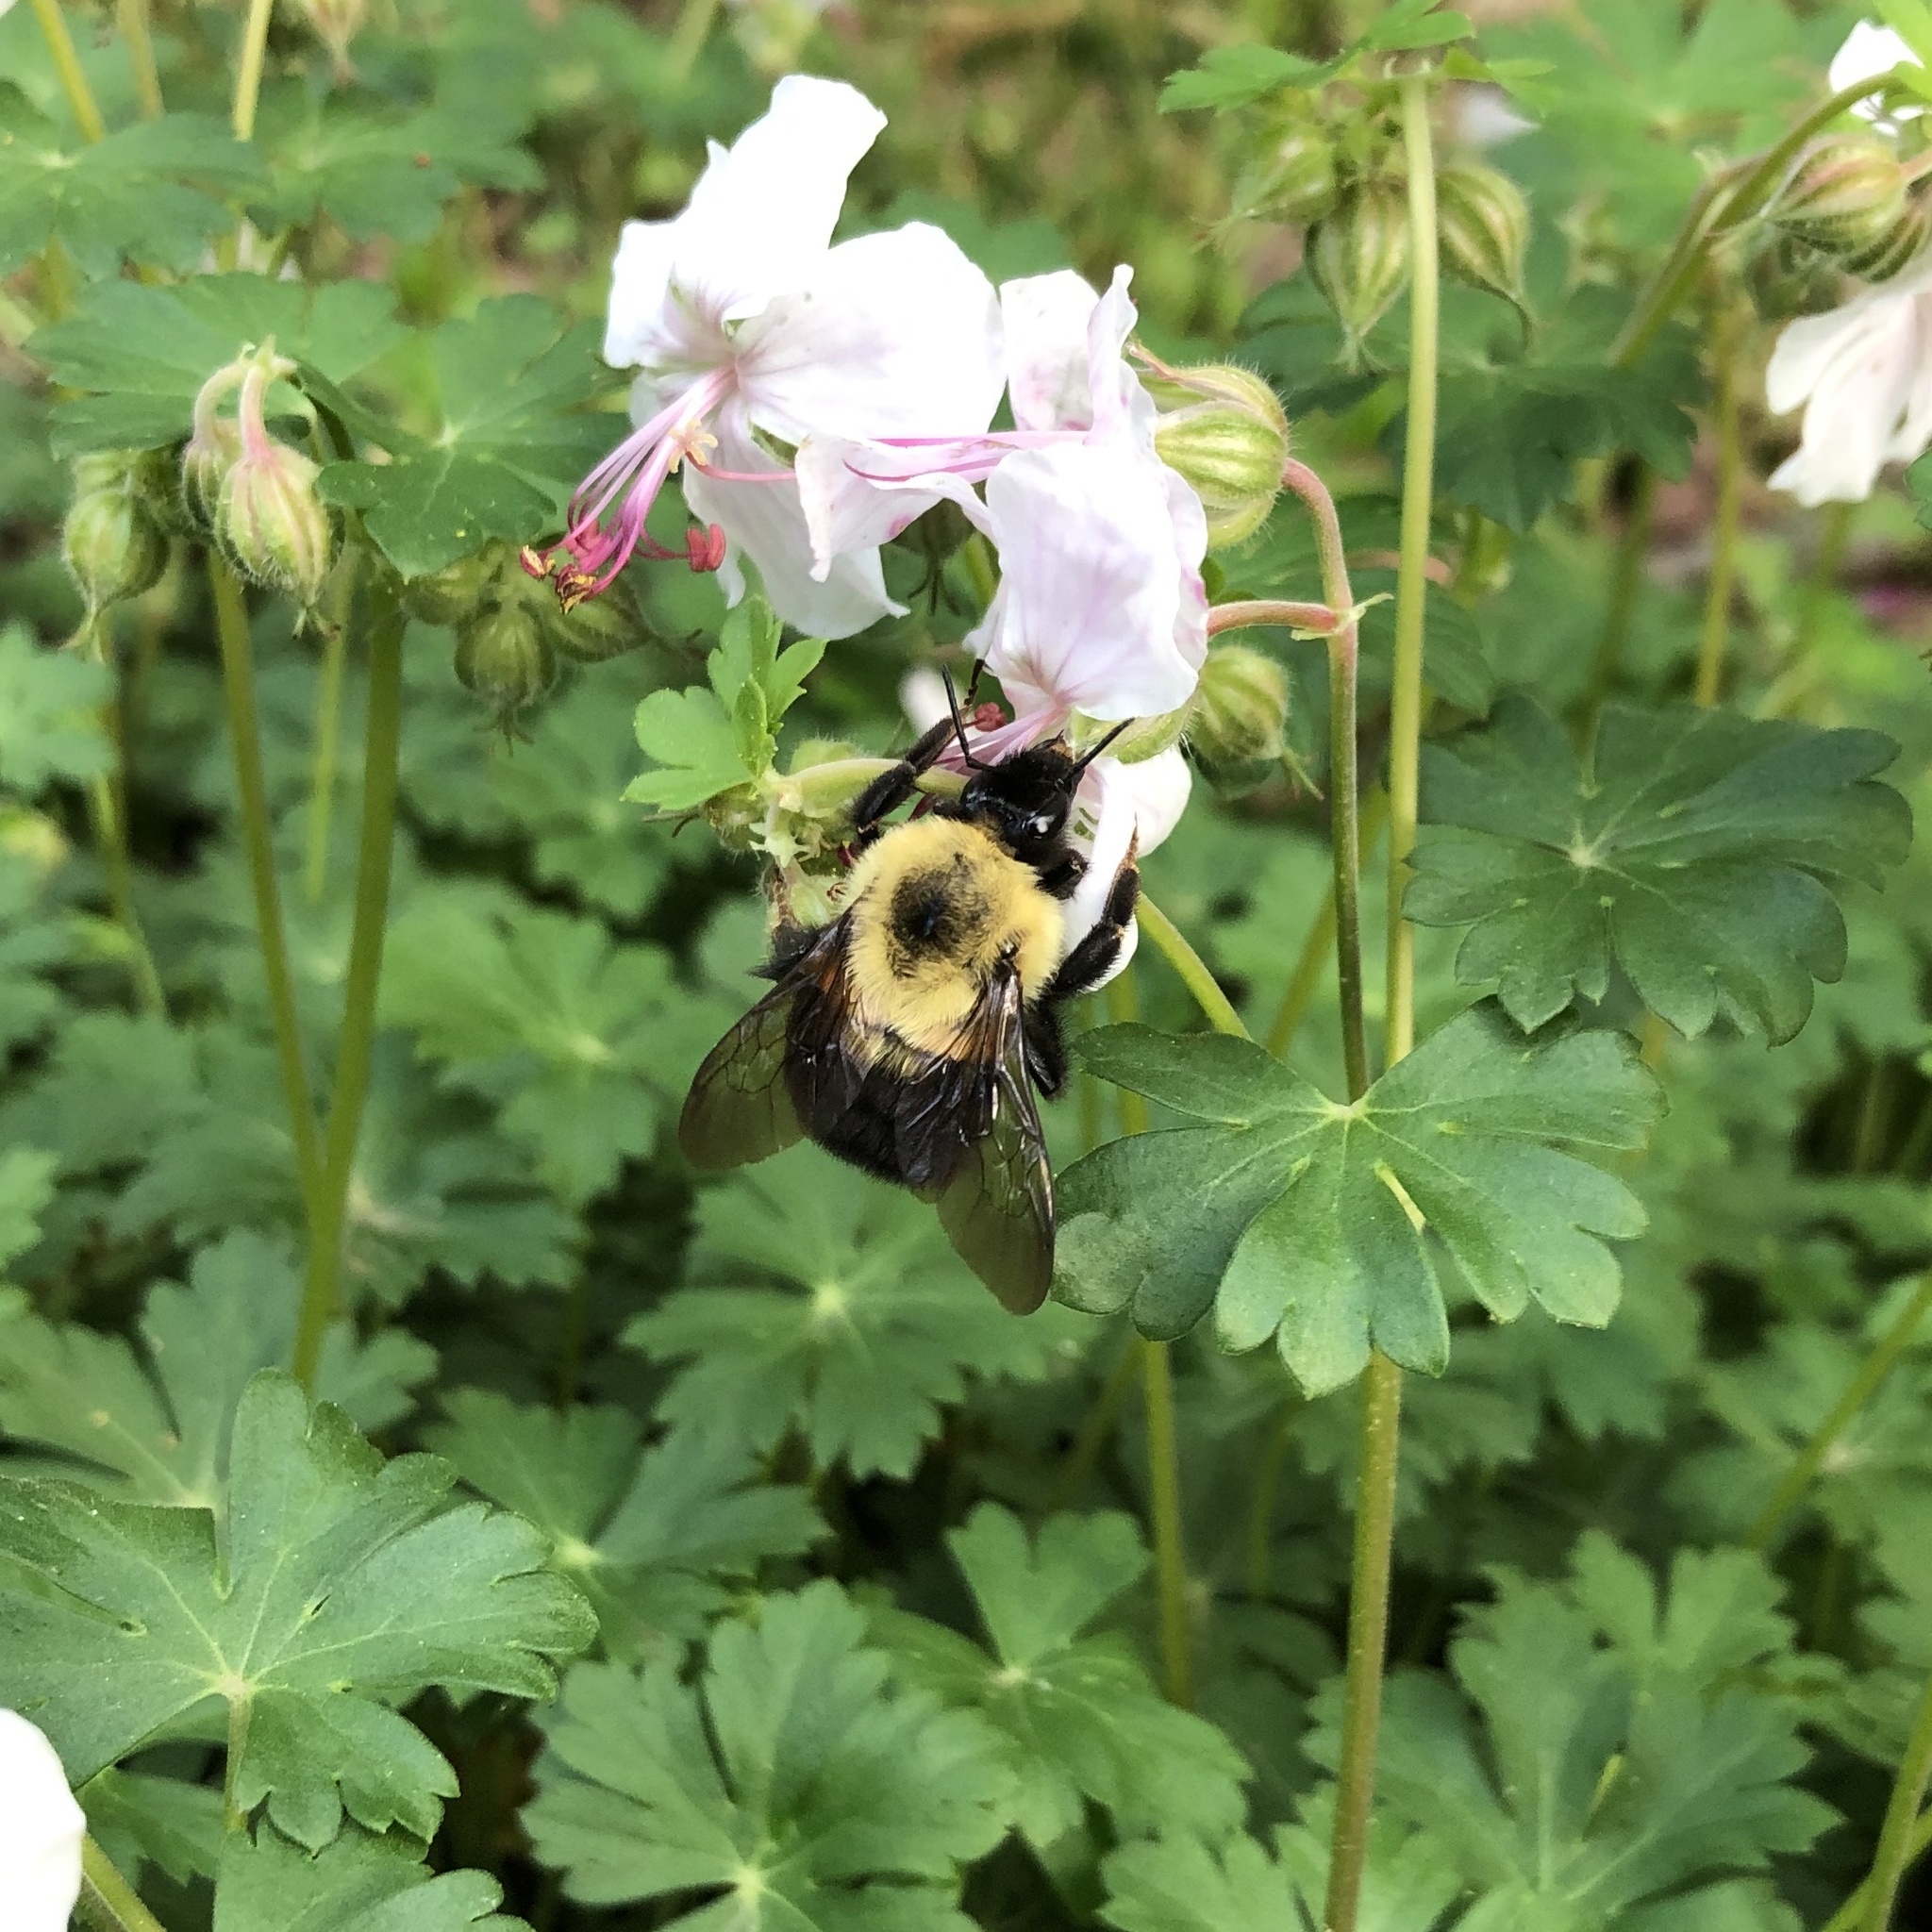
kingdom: Animalia
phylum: Arthropoda
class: Insecta
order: Hymenoptera
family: Apidae
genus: Bombus
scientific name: Bombus bimaculatus
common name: Two-spotted bumble bee
